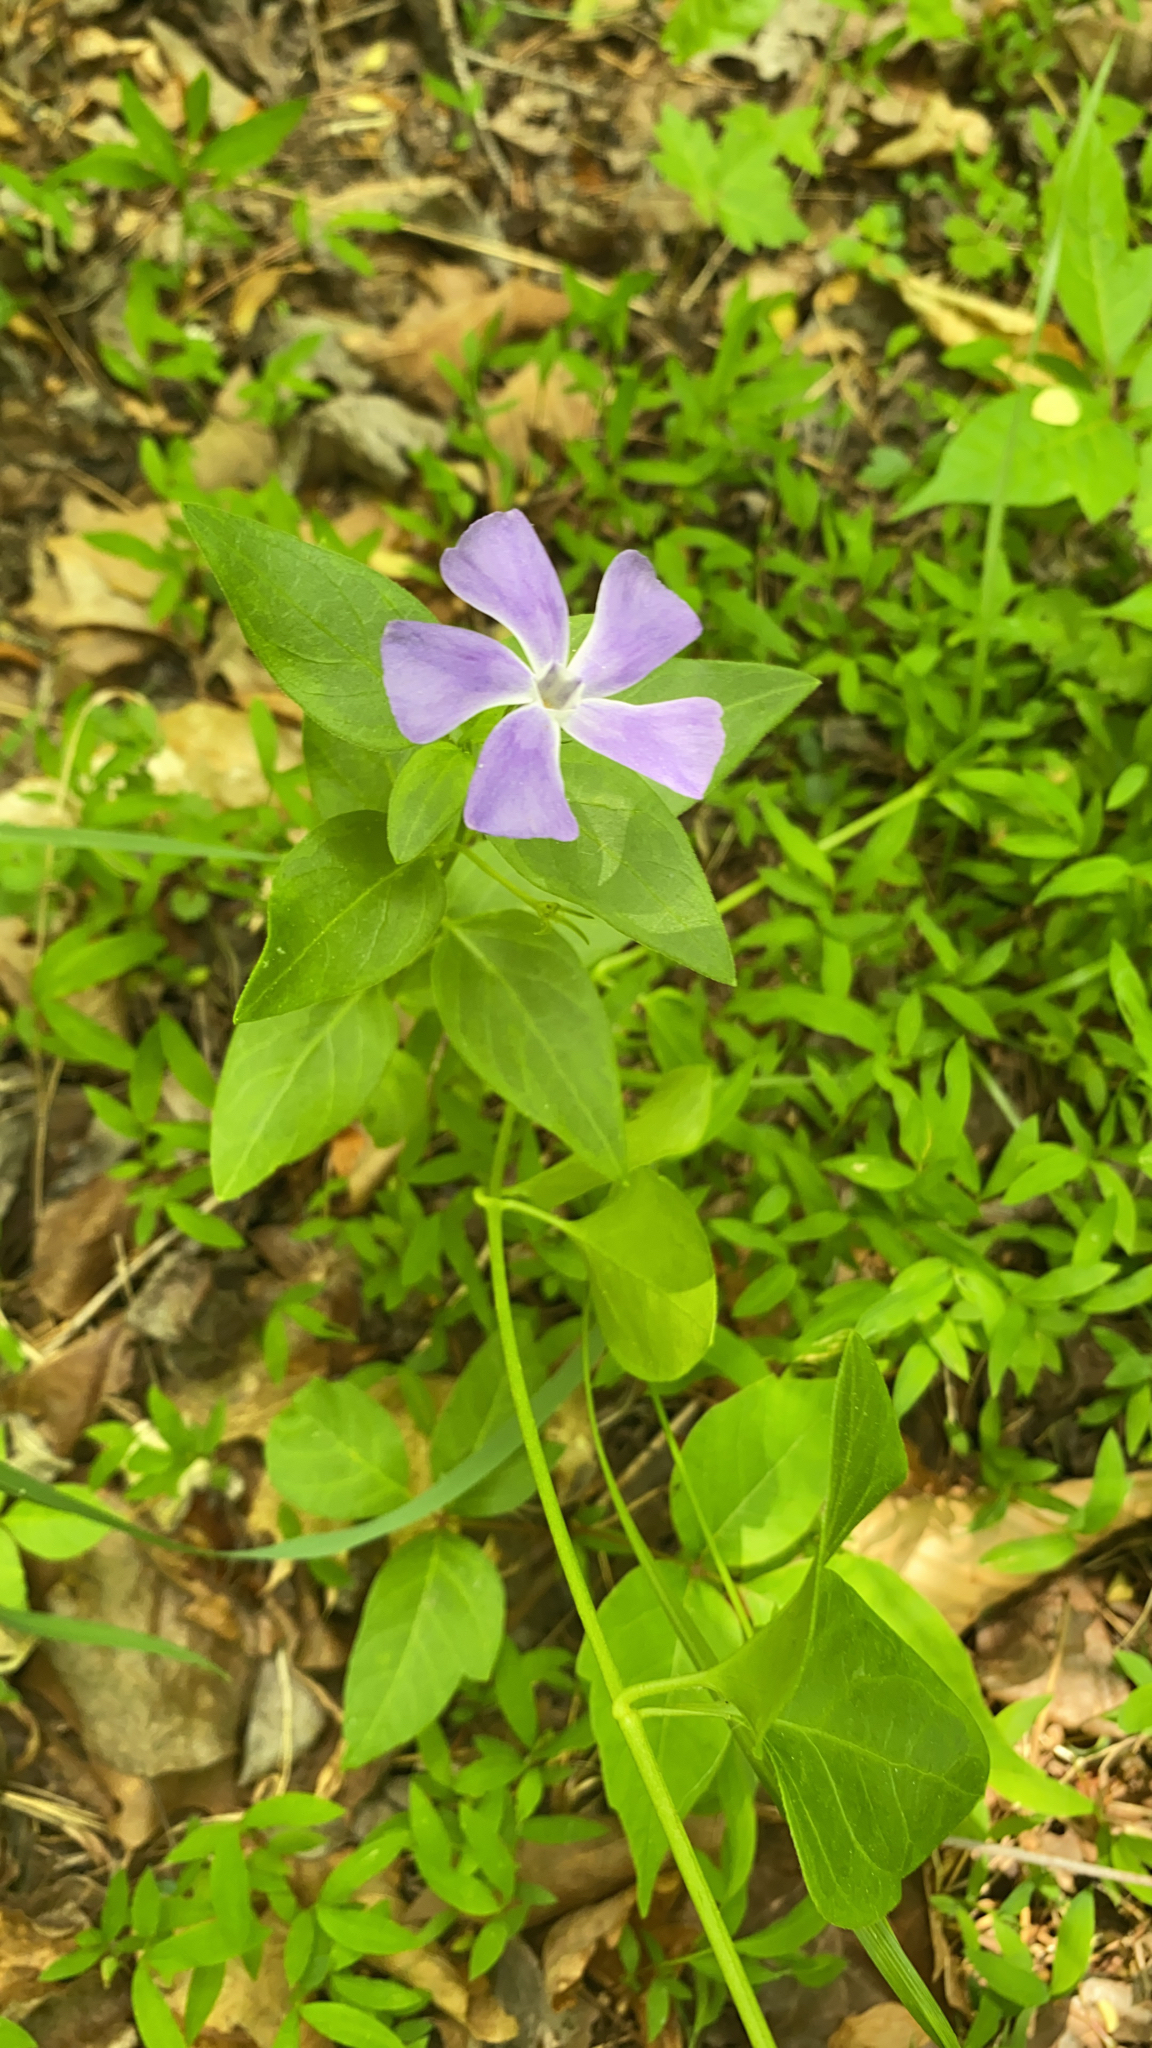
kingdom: Plantae
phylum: Tracheophyta
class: Magnoliopsida
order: Gentianales
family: Apocynaceae
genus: Vinca
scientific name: Vinca major
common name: Greater periwinkle
